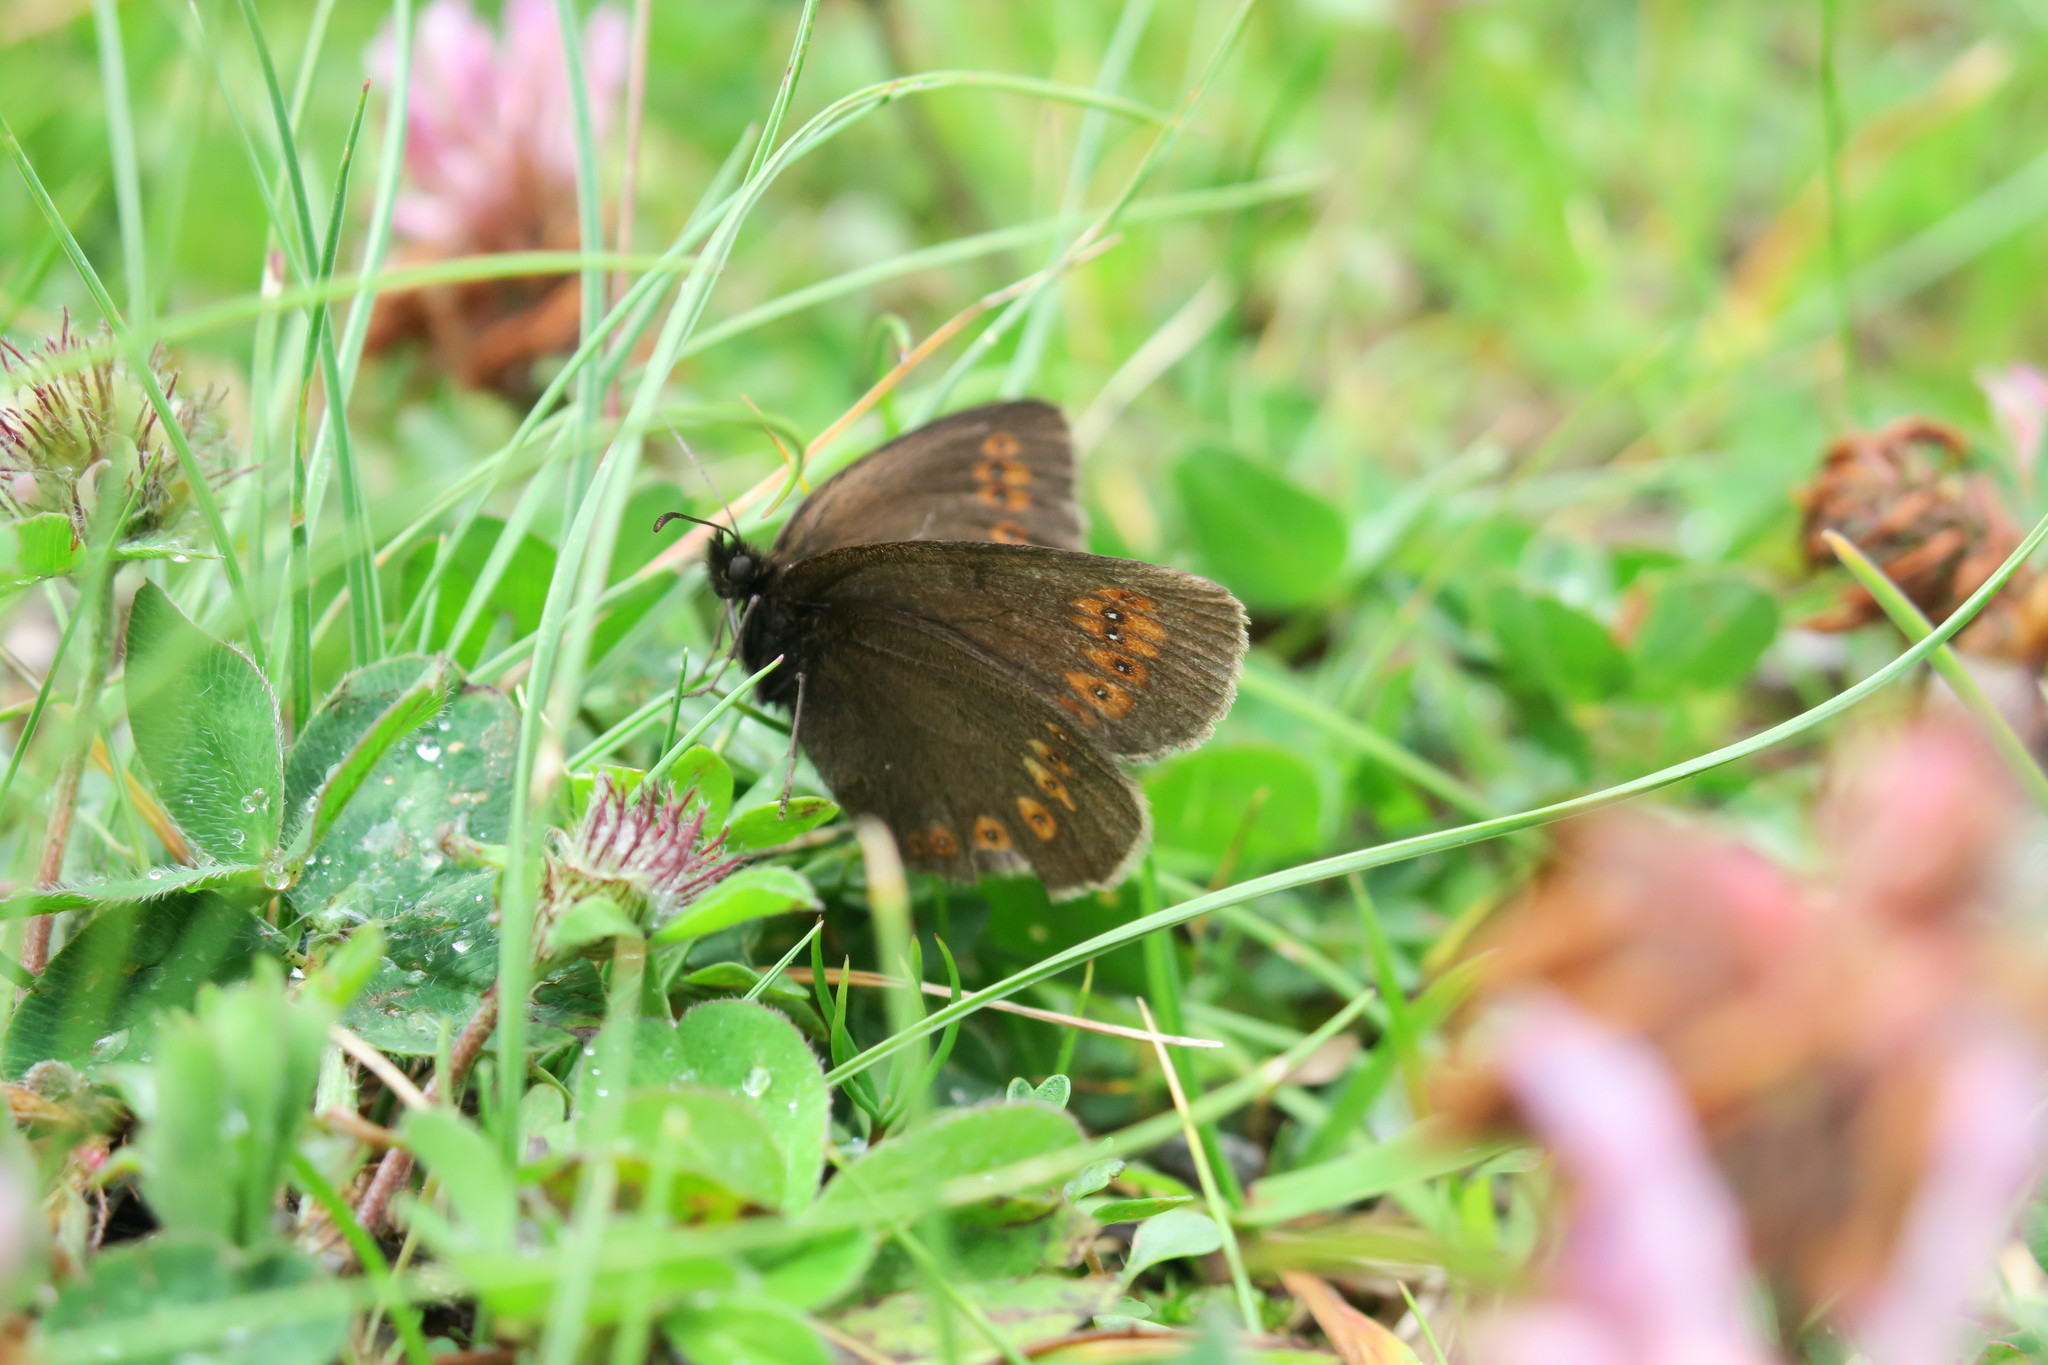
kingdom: Animalia
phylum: Arthropoda
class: Insecta
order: Lepidoptera
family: Nymphalidae
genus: Erebia
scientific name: Erebia alberganus
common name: Almond-eyed ringlet
